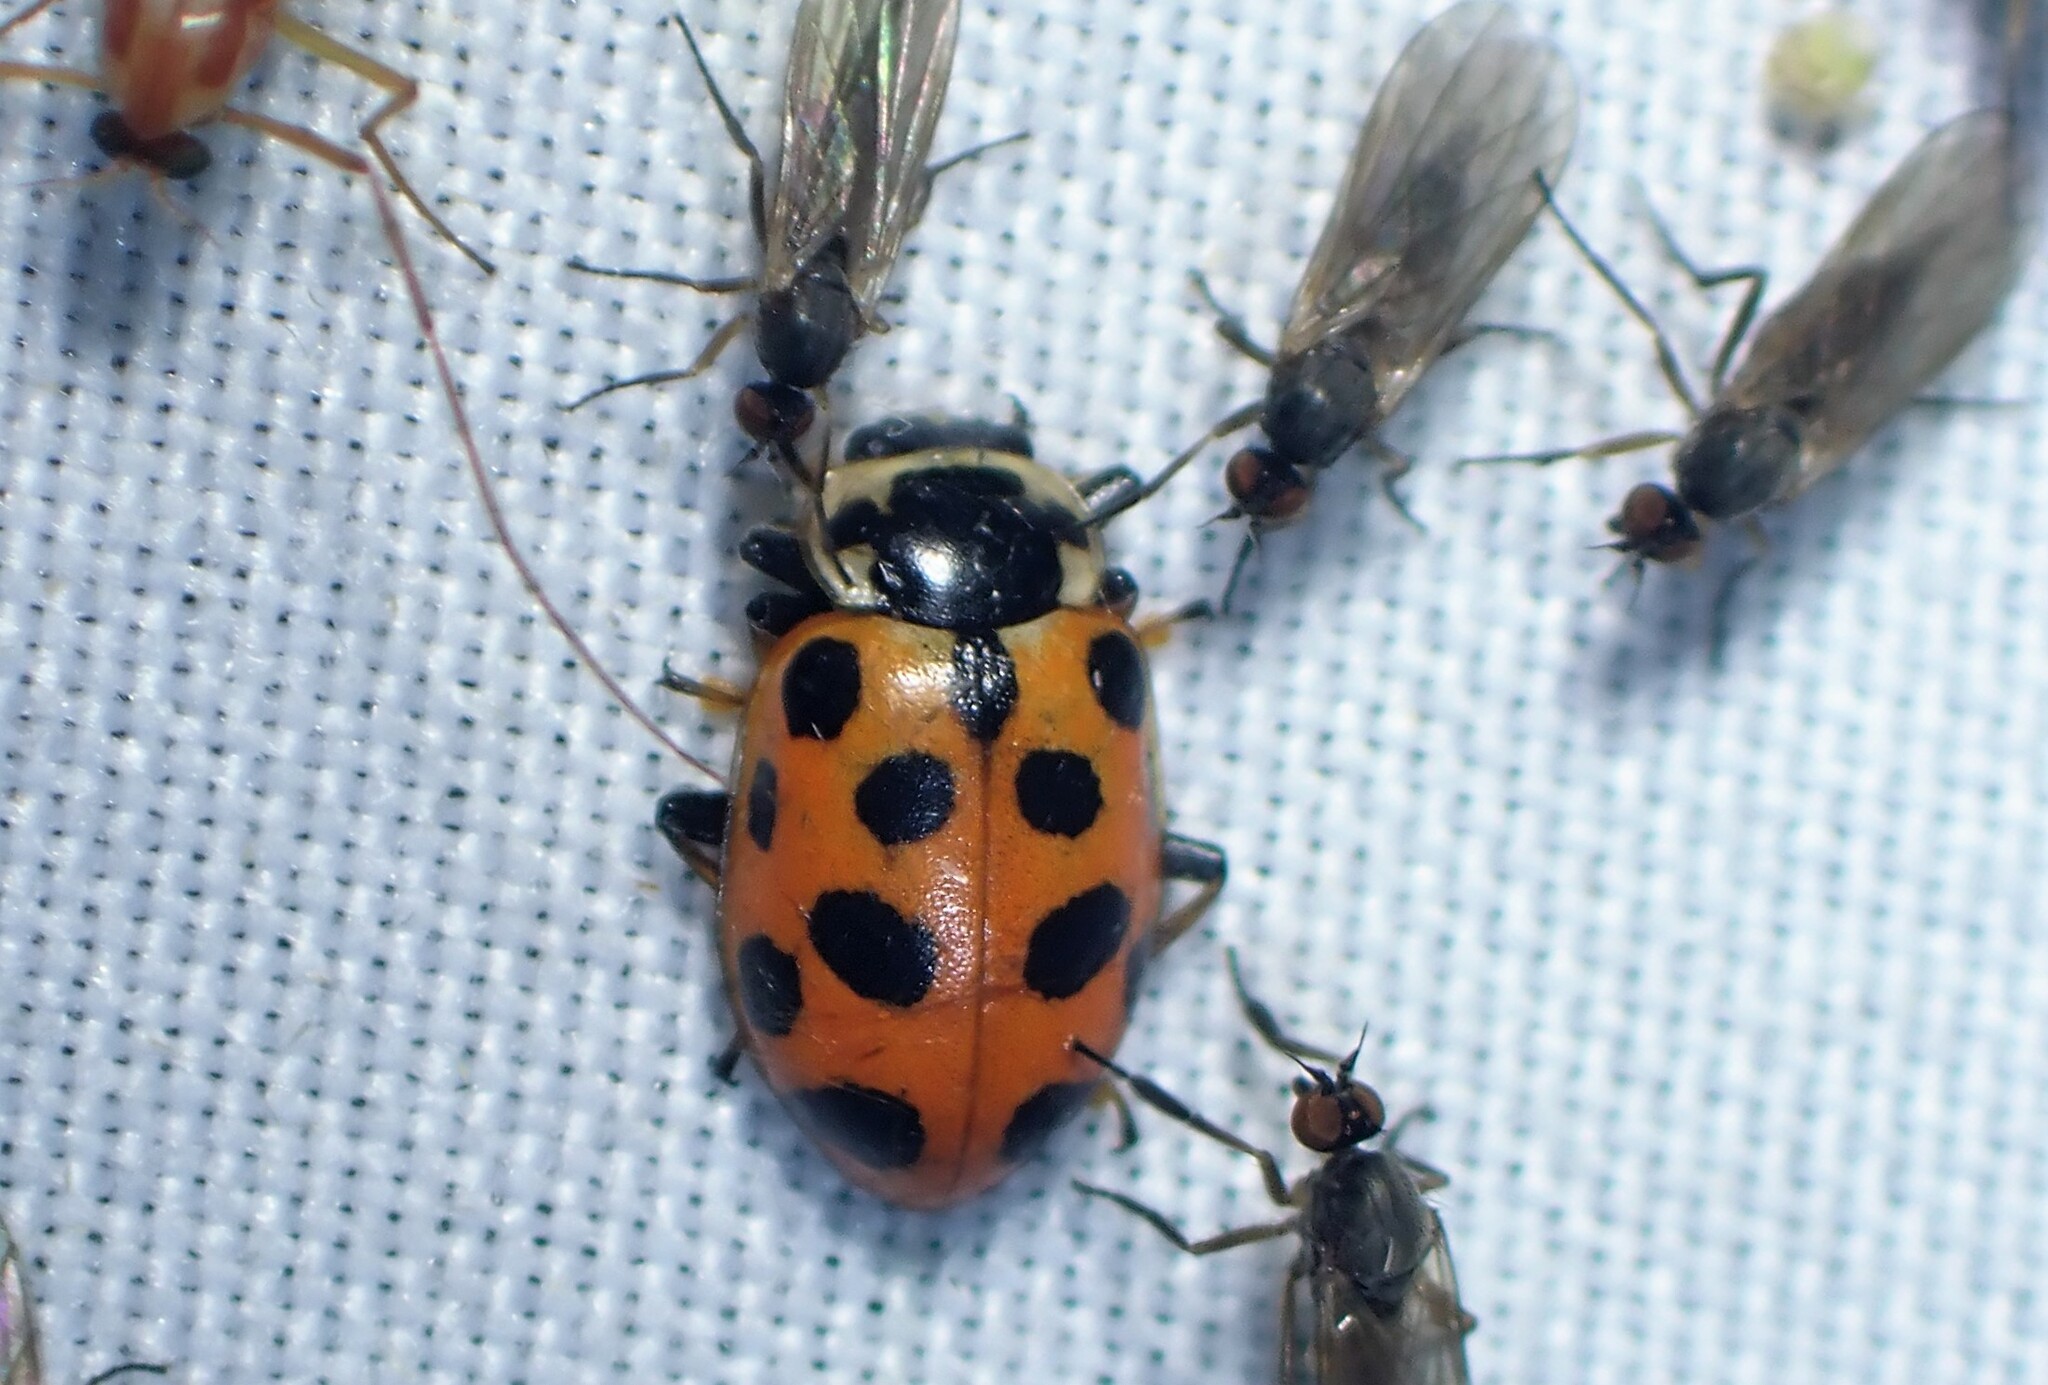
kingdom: Animalia
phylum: Arthropoda
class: Insecta
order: Coleoptera
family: Coccinellidae
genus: Hippodamia
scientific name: Hippodamia tredecimpunctata
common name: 13-spot ladybird
